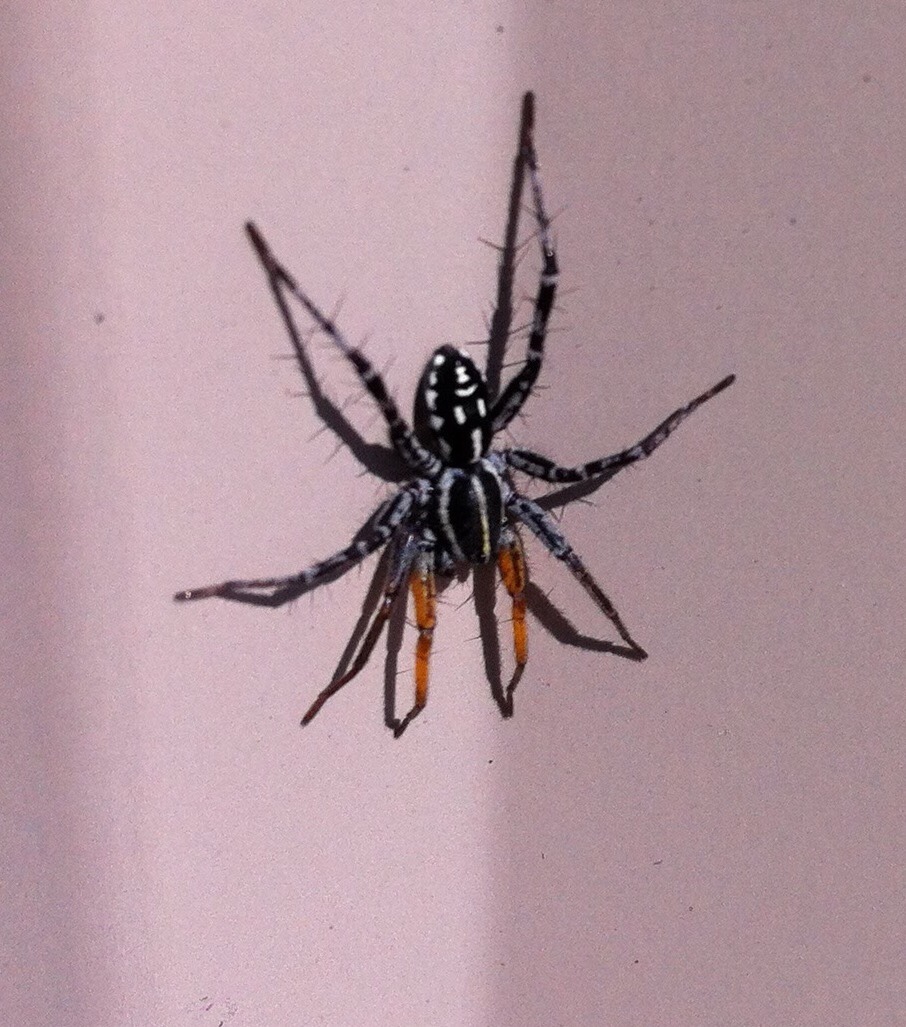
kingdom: Animalia
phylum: Arthropoda
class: Arachnida
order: Araneae
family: Corinnidae
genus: Nyssus
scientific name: Nyssus coloripes
